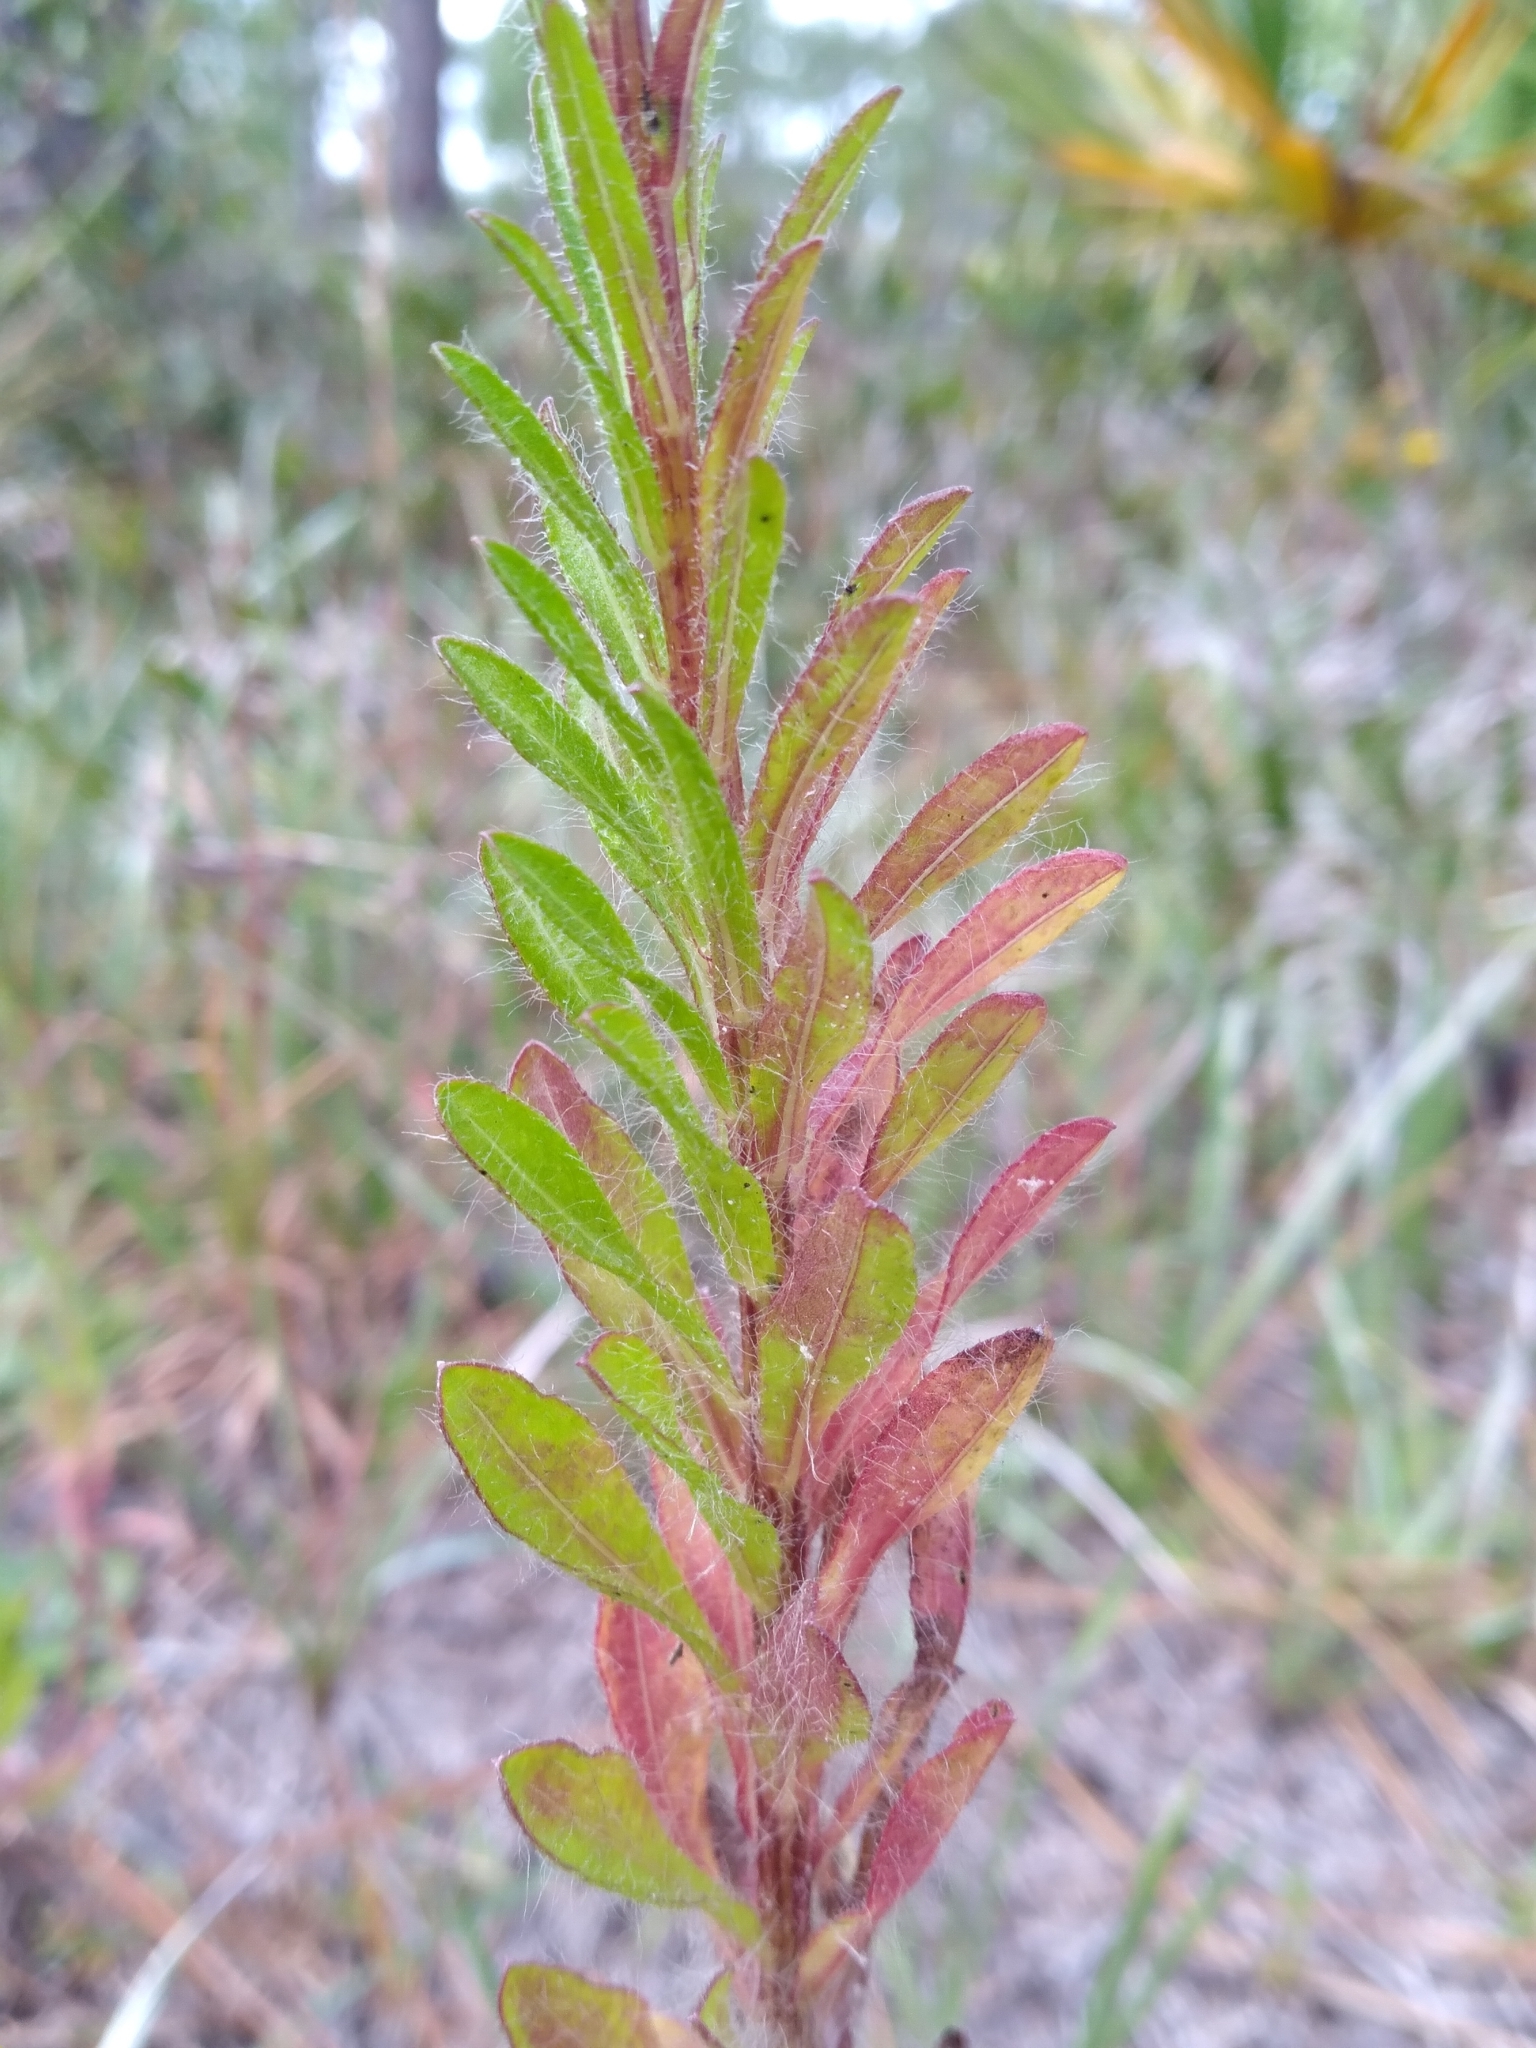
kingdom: Plantae
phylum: Tracheophyta
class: Magnoliopsida
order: Asterales
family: Asteraceae
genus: Chrysopsis
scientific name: Chrysopsis gossypina
